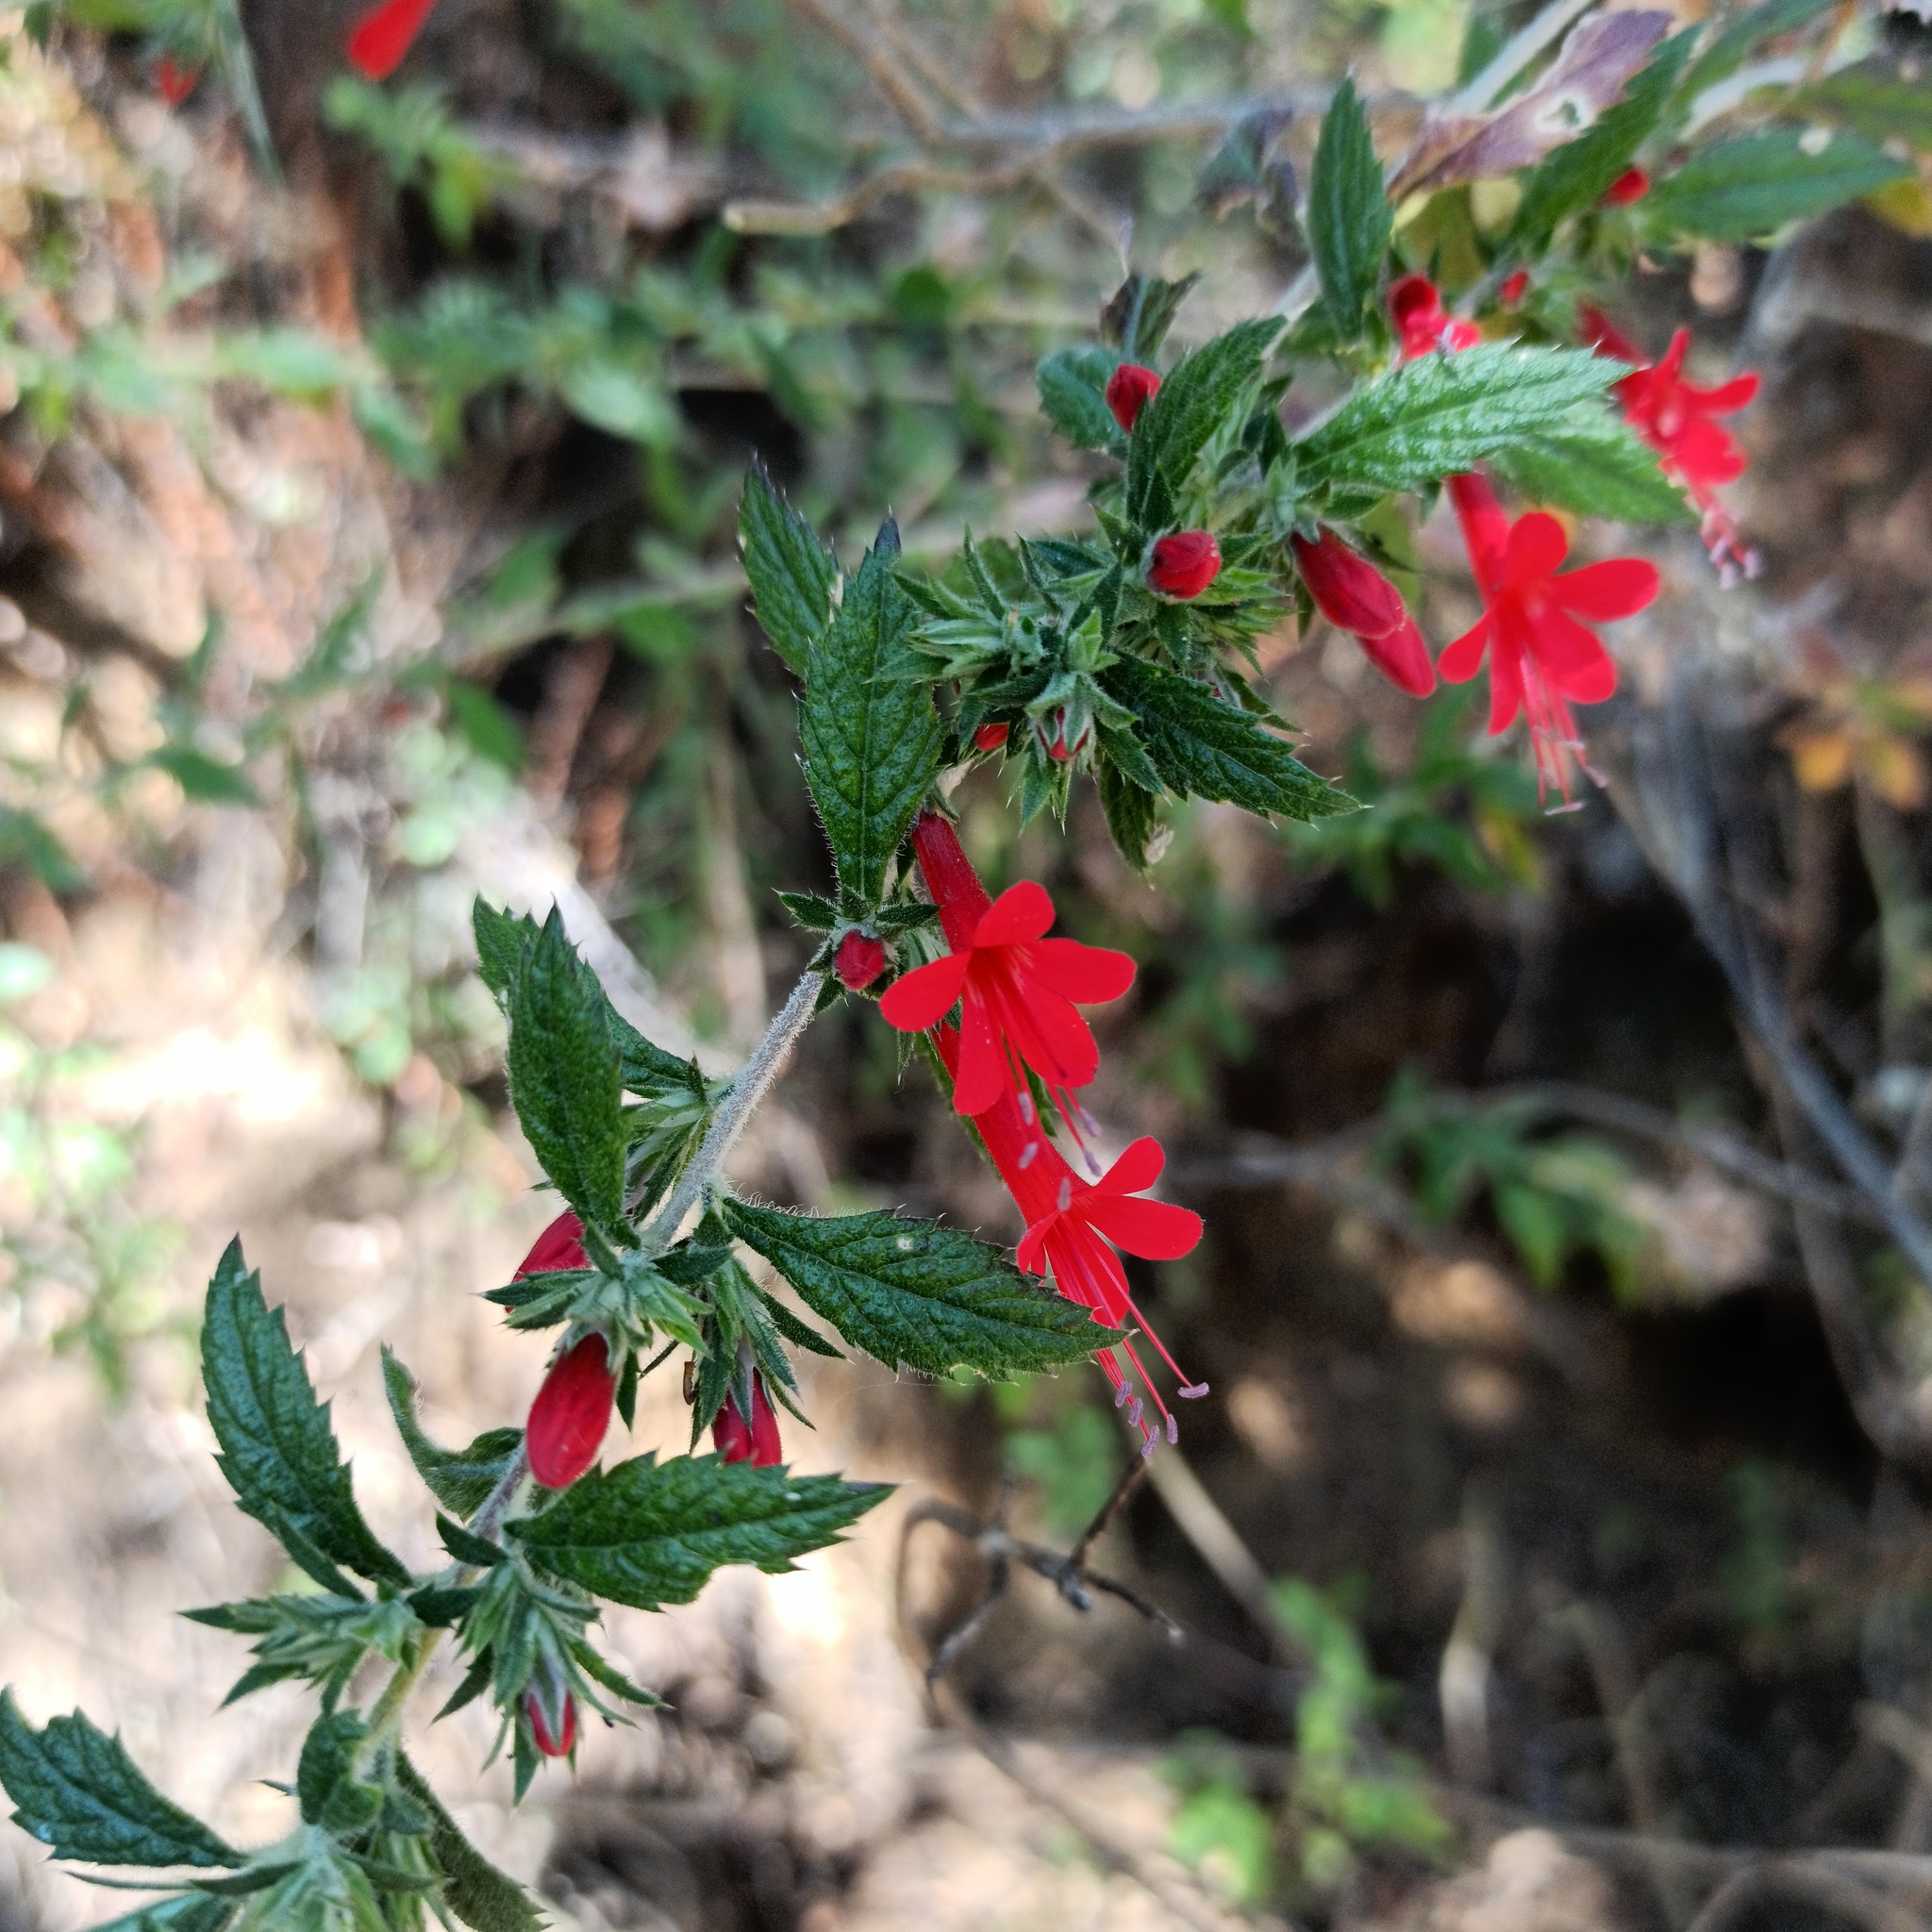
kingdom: Plantae
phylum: Tracheophyta
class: Magnoliopsida
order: Ericales
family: Polemoniaceae
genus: Loeselia
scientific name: Loeselia mexicana
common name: Mexican false calico
